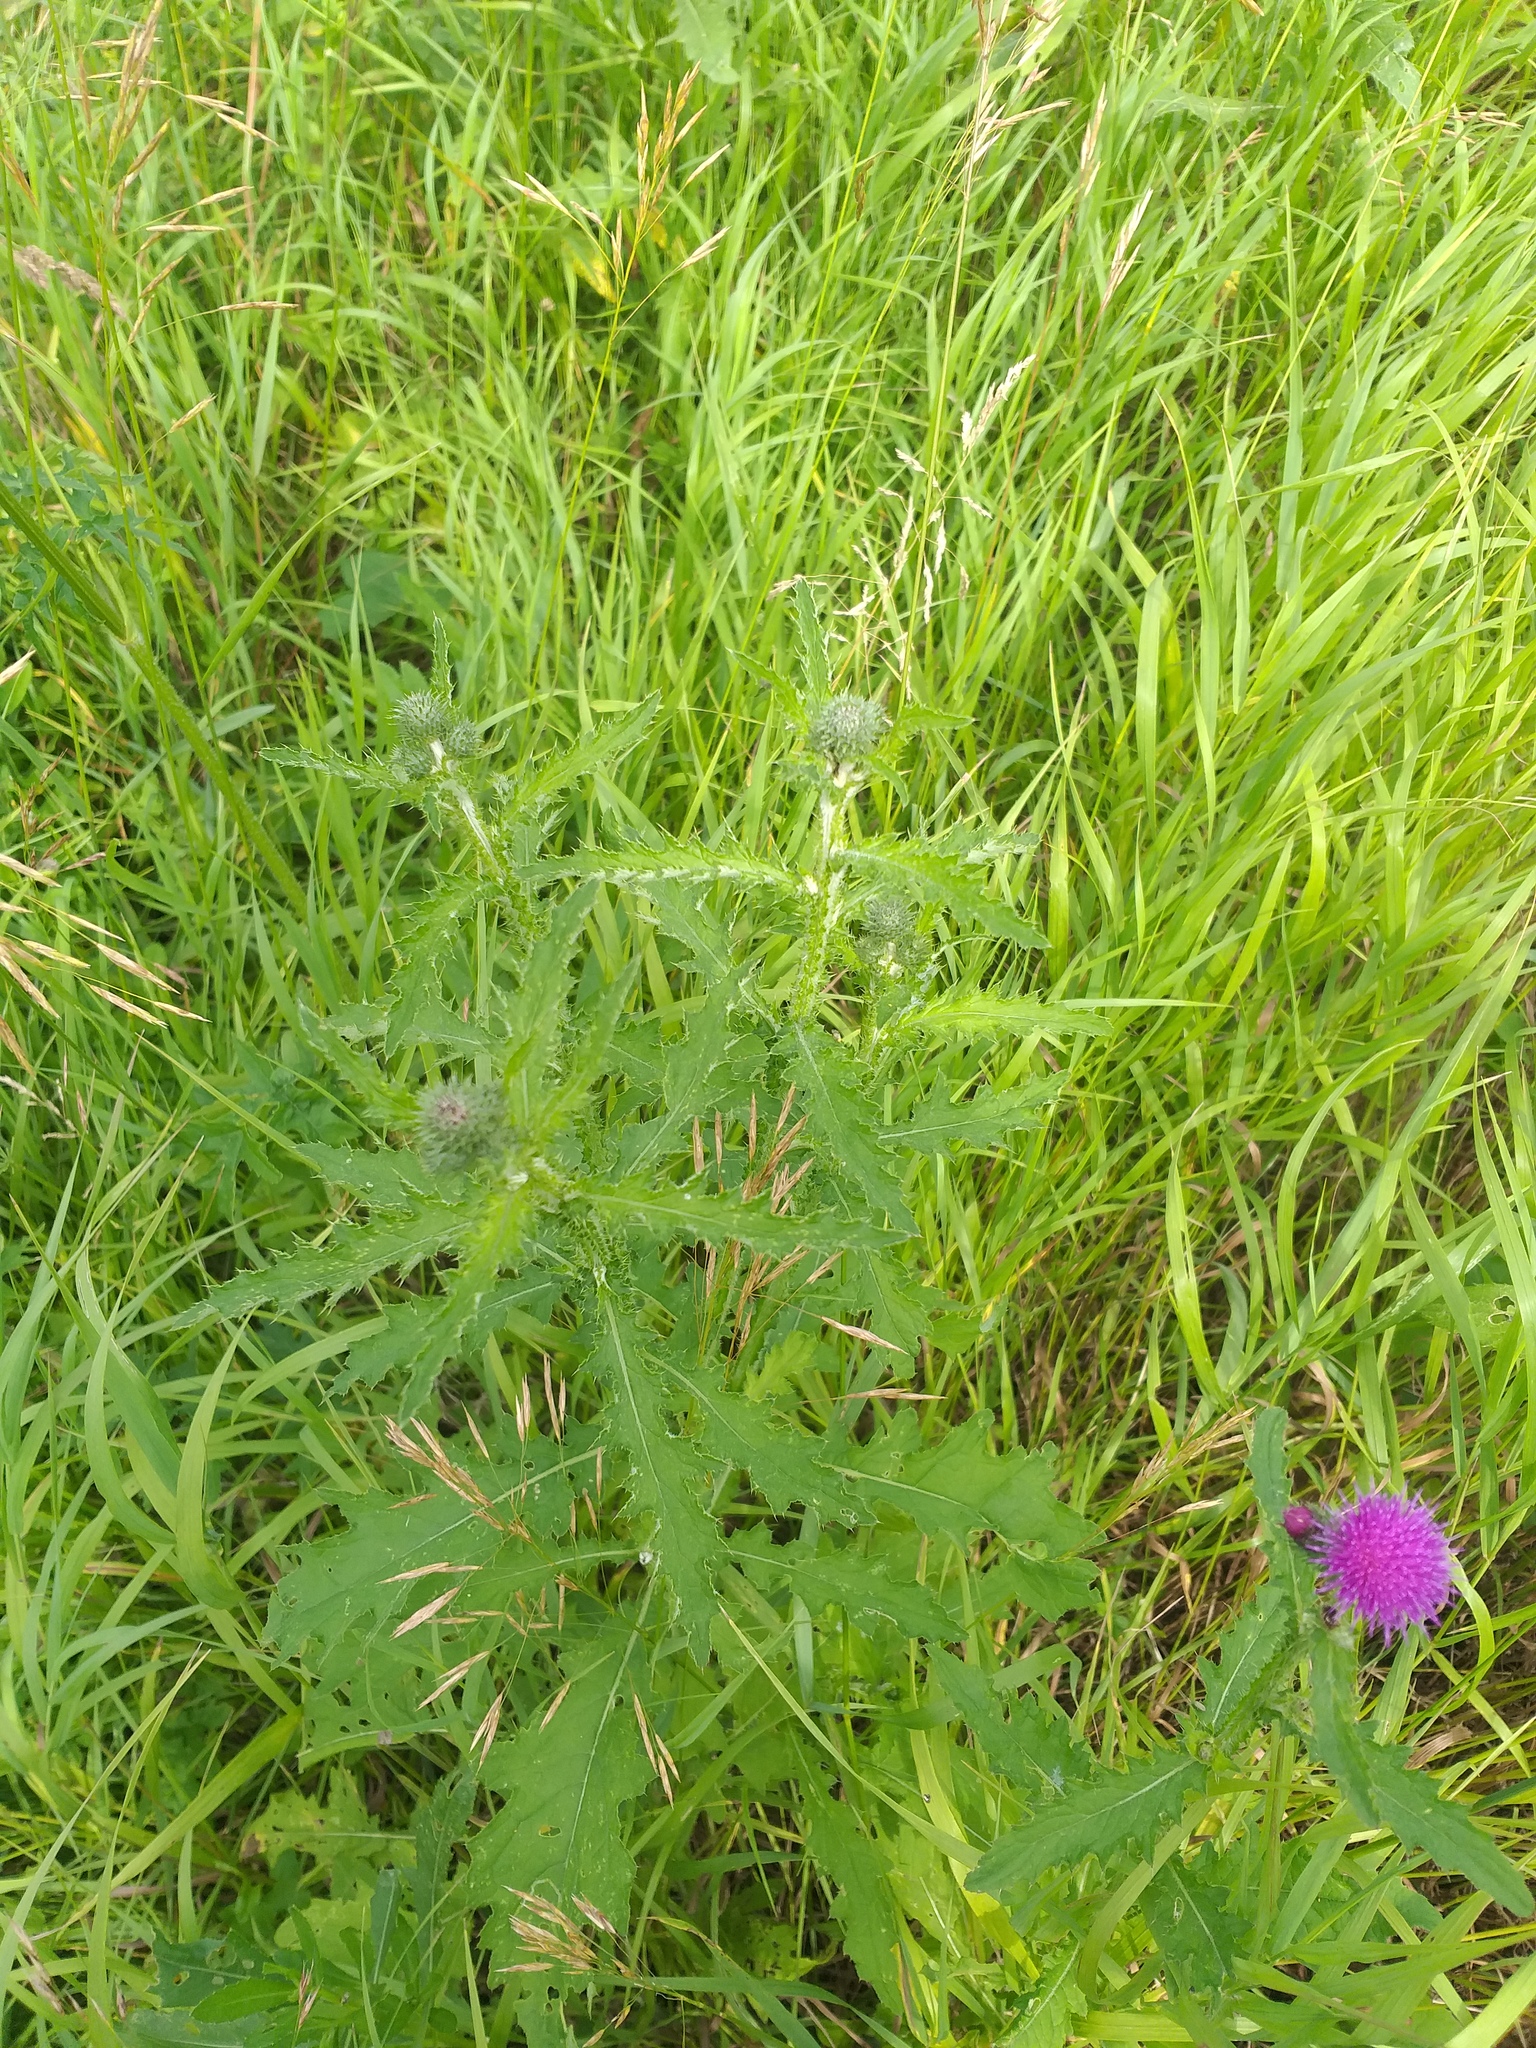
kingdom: Plantae
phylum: Tracheophyta
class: Magnoliopsida
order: Asterales
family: Asteraceae
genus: Carduus
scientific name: Carduus crispus
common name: Welted thistle
